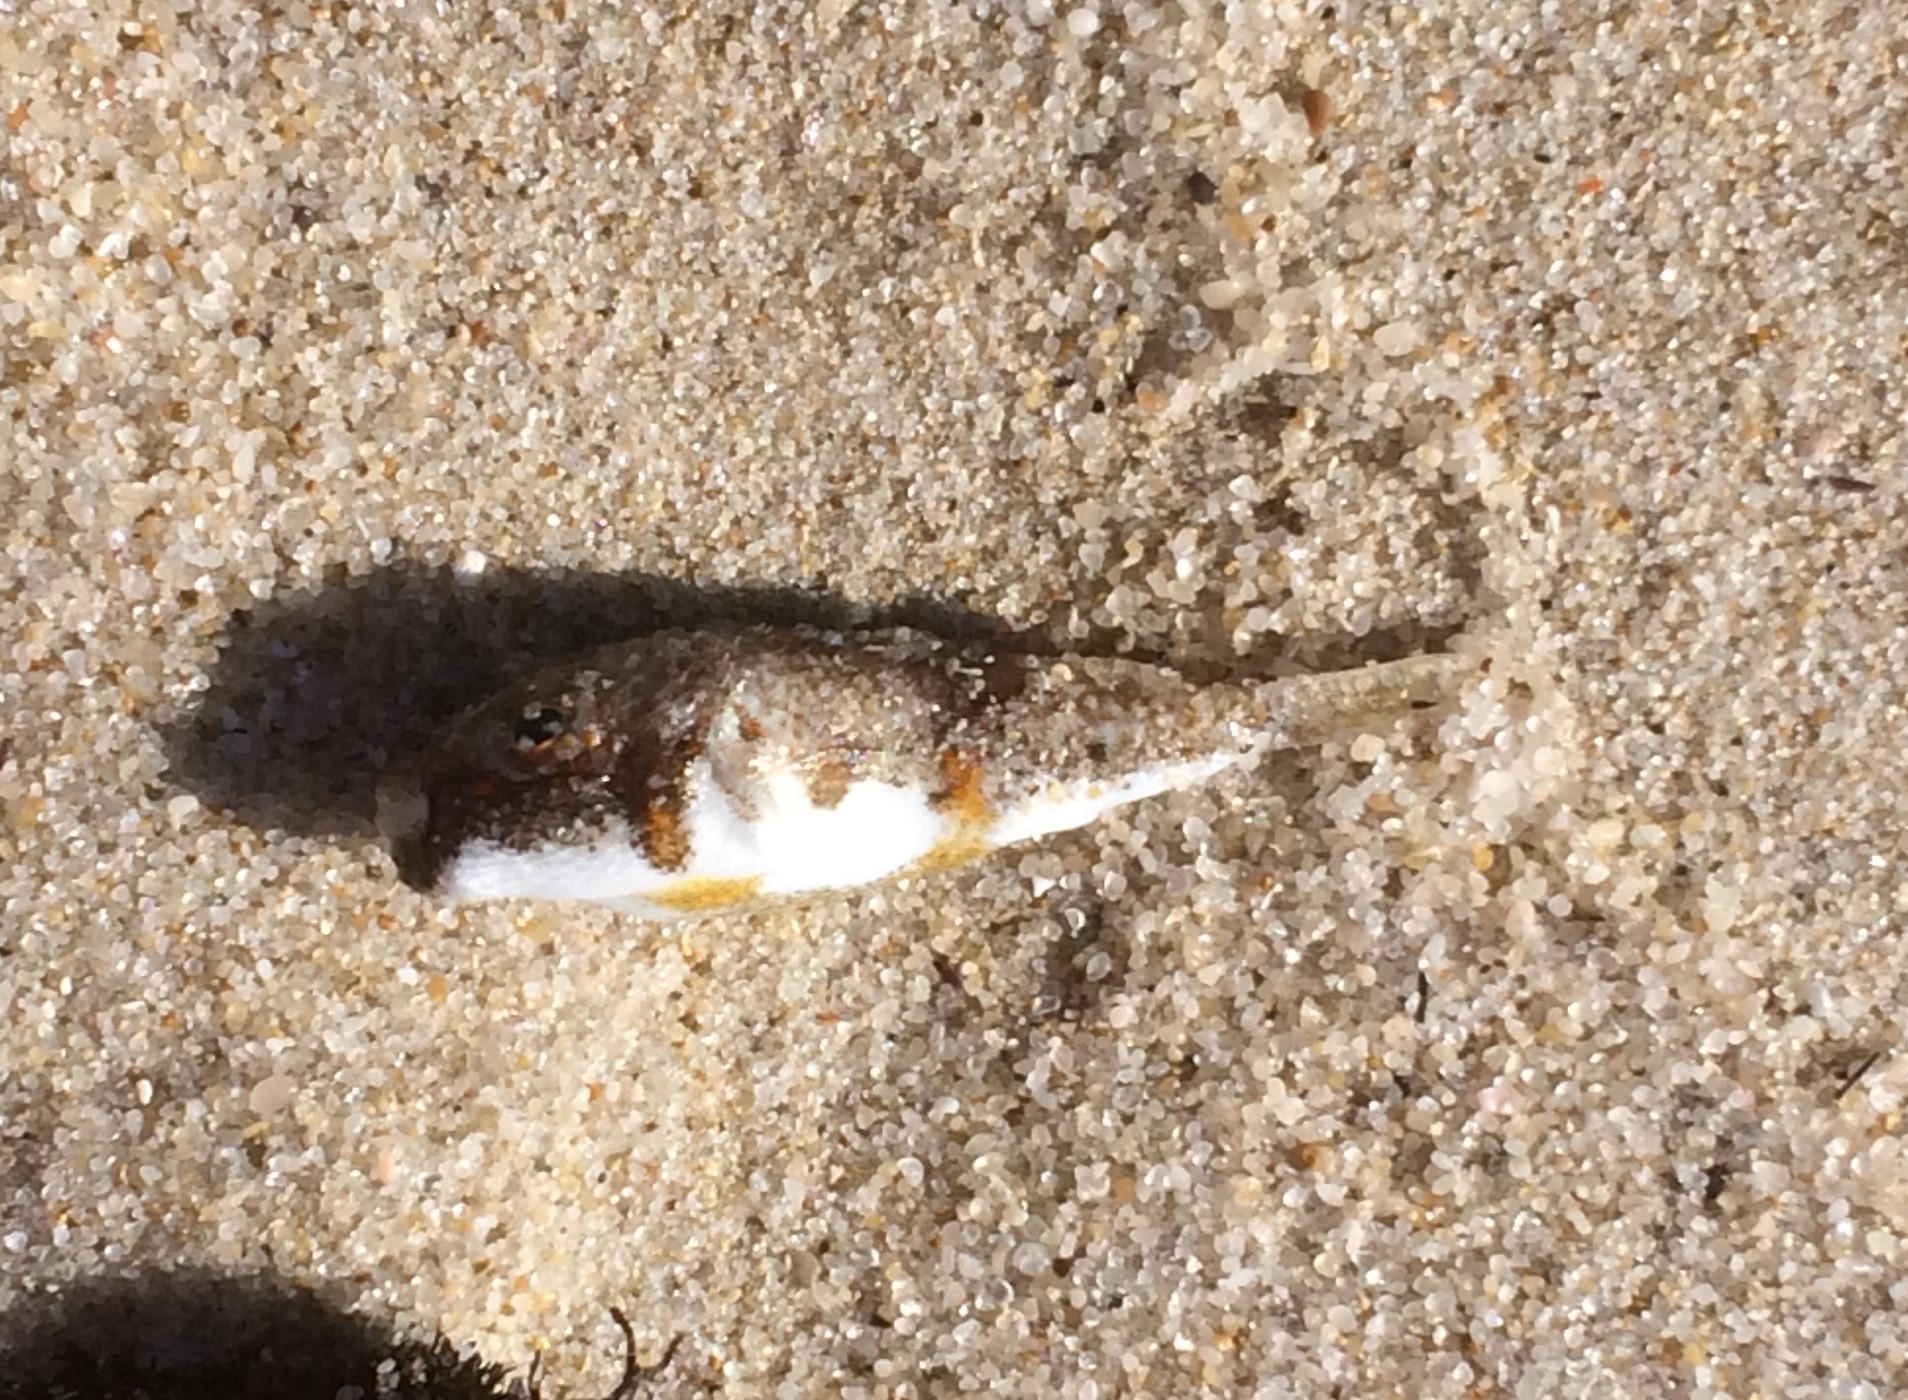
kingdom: Animalia
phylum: Chordata
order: Tetraodontiformes
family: Tetraodontidae
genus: Polyspina
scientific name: Polyspina piosae
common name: Orange-barred pufferfish
